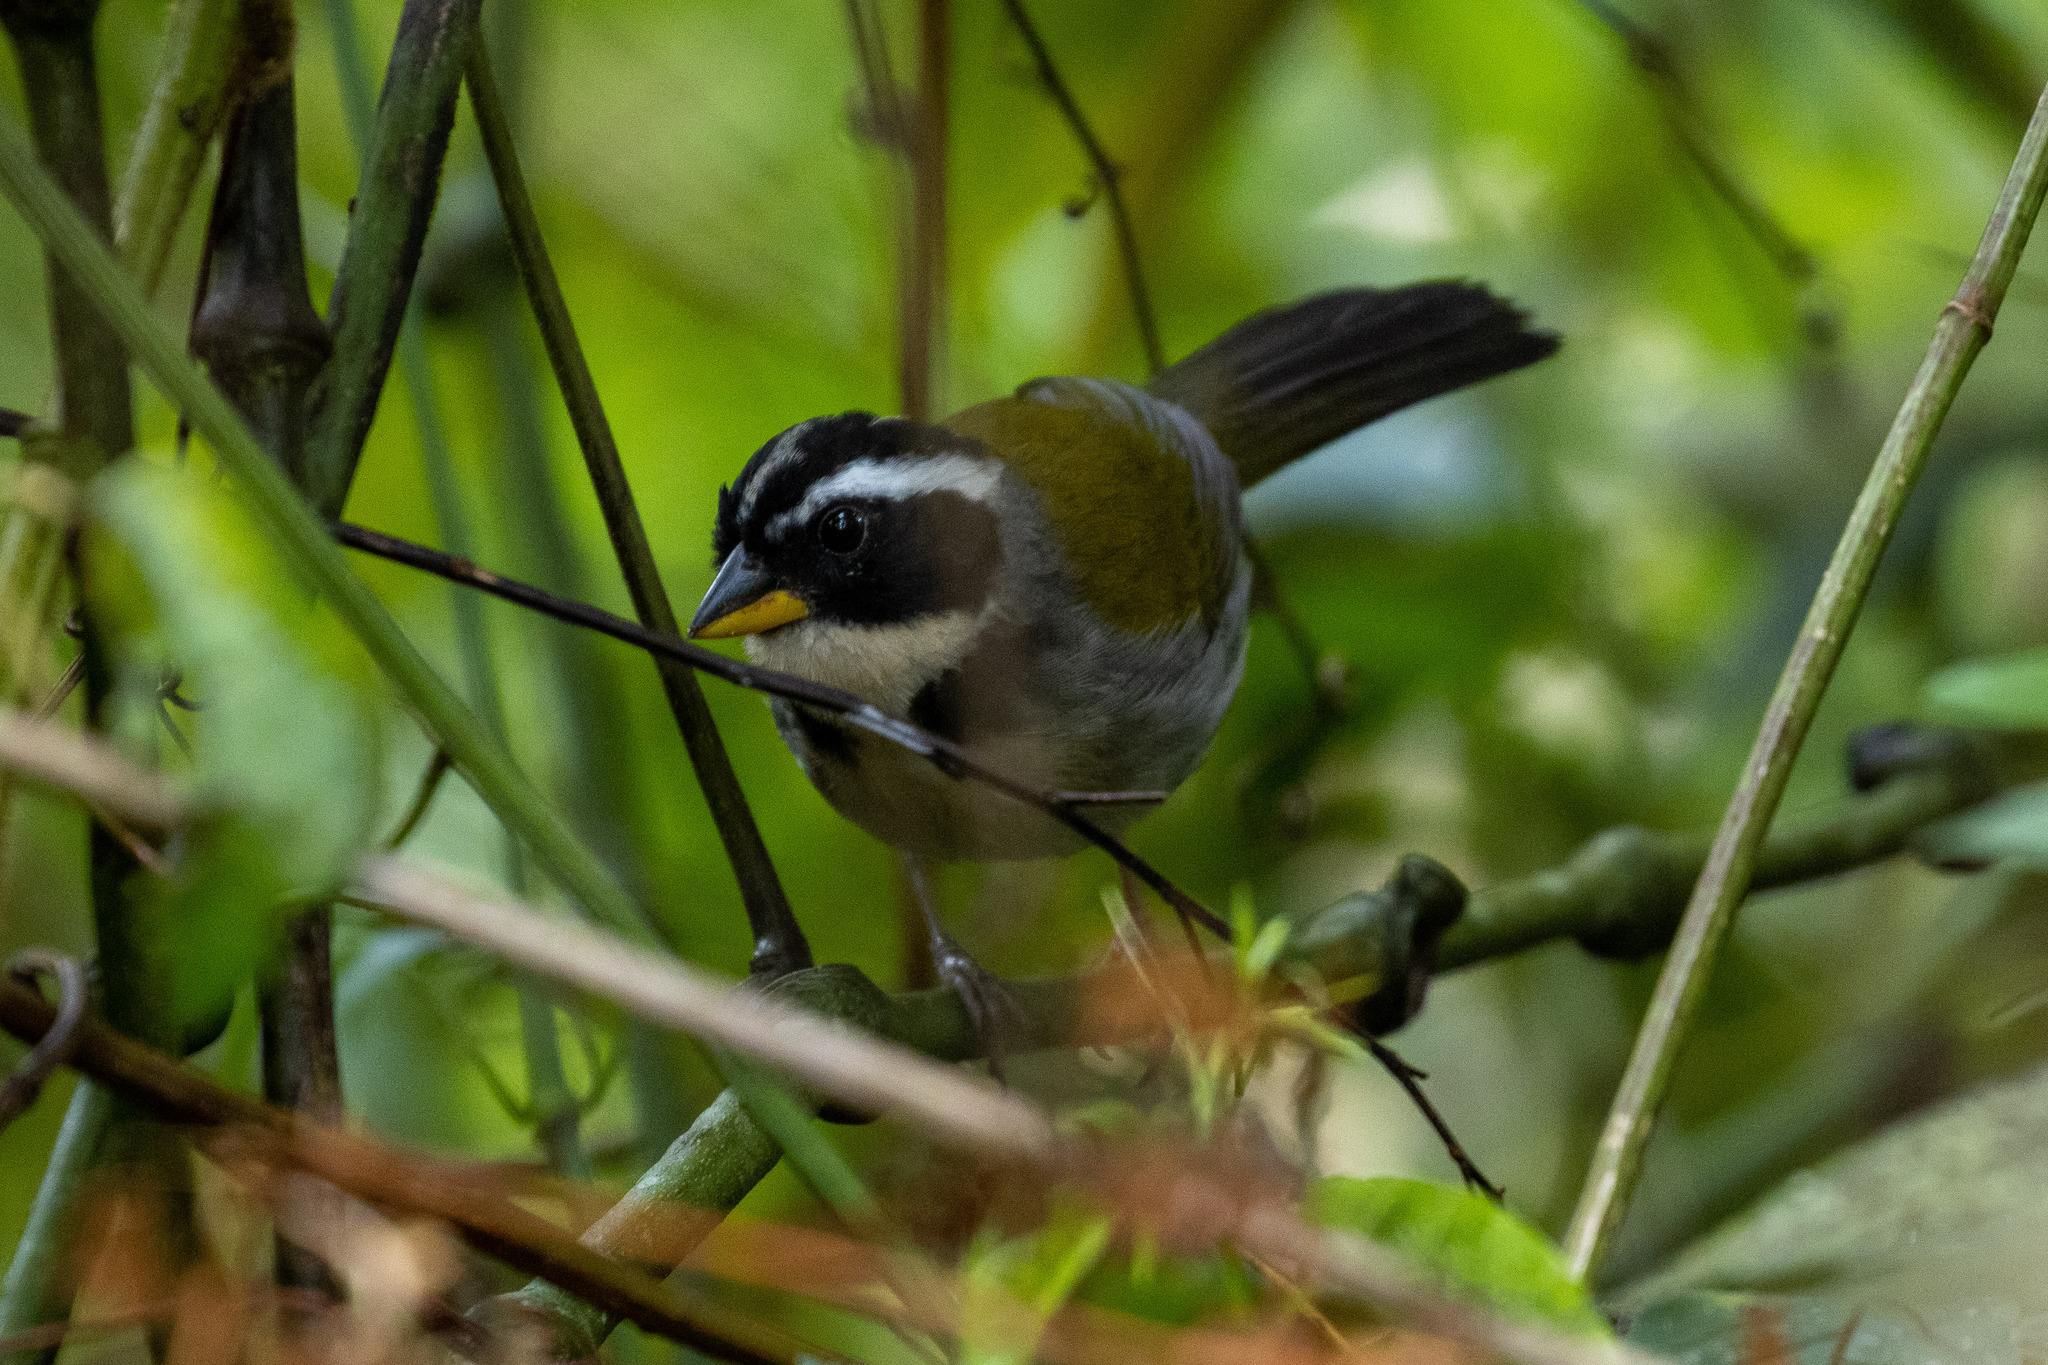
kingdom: Animalia
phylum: Chordata
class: Aves
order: Passeriformes
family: Passerellidae
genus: Arremon
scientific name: Arremon semitorquatus
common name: Half-collared sparrow
